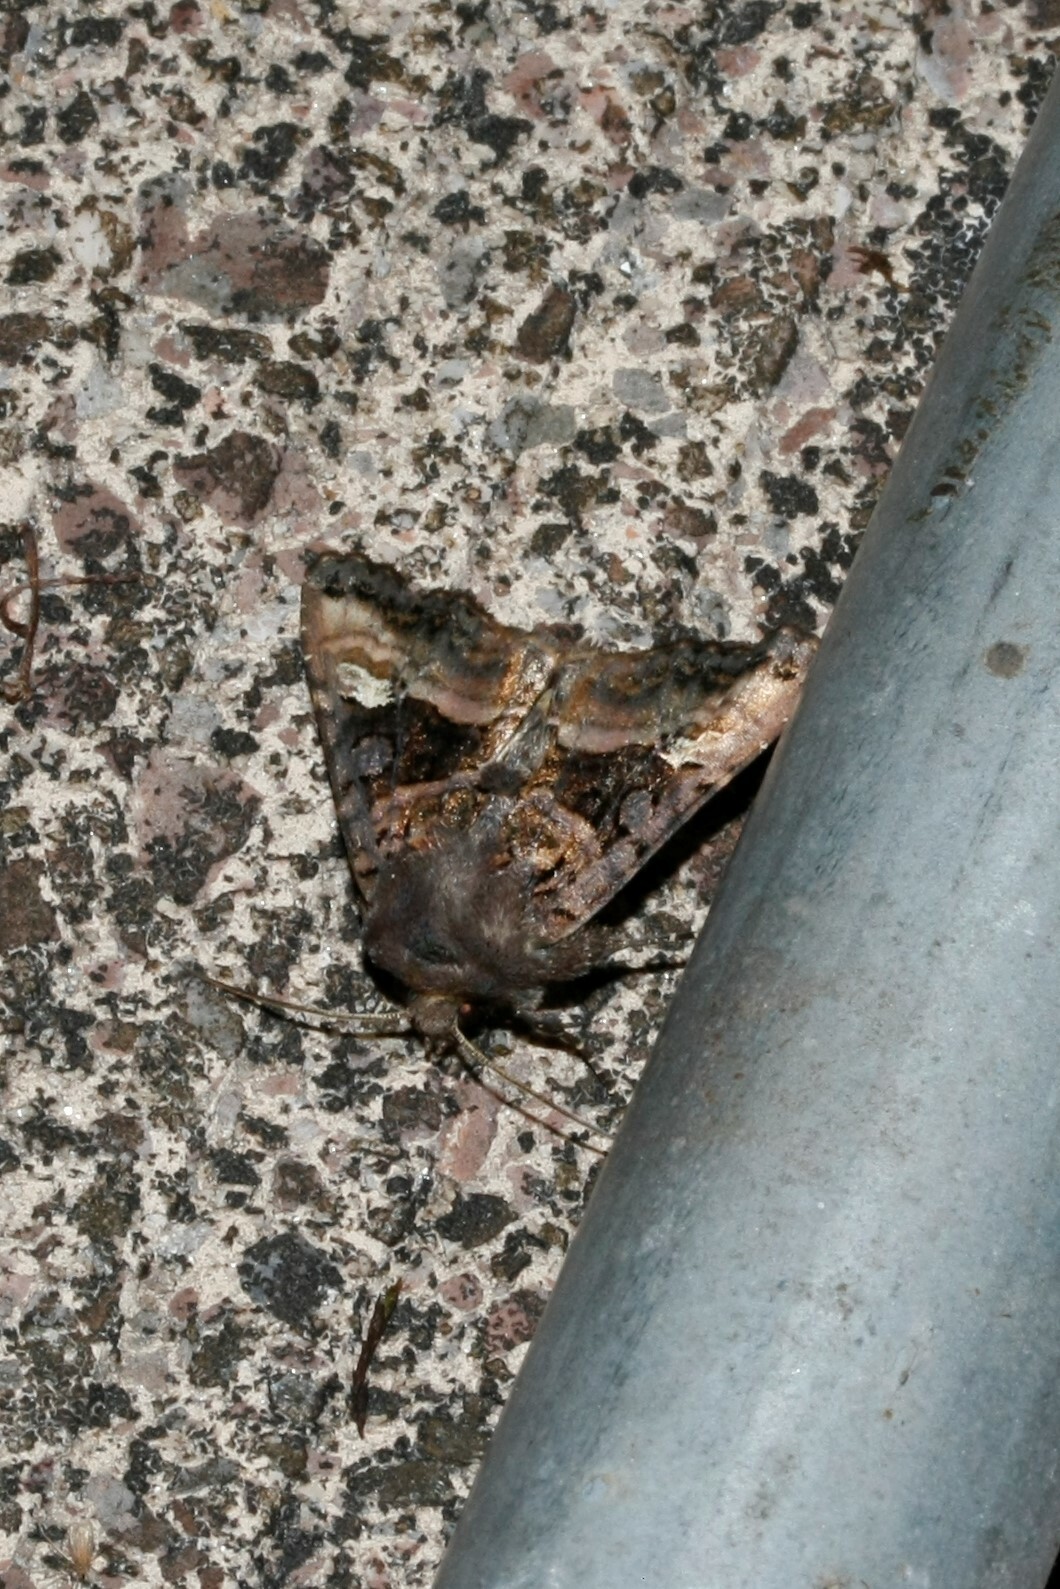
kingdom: Animalia
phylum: Arthropoda
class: Insecta
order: Lepidoptera
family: Noctuidae
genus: Euplexia
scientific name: Euplexia lucipara
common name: Small angle shades
